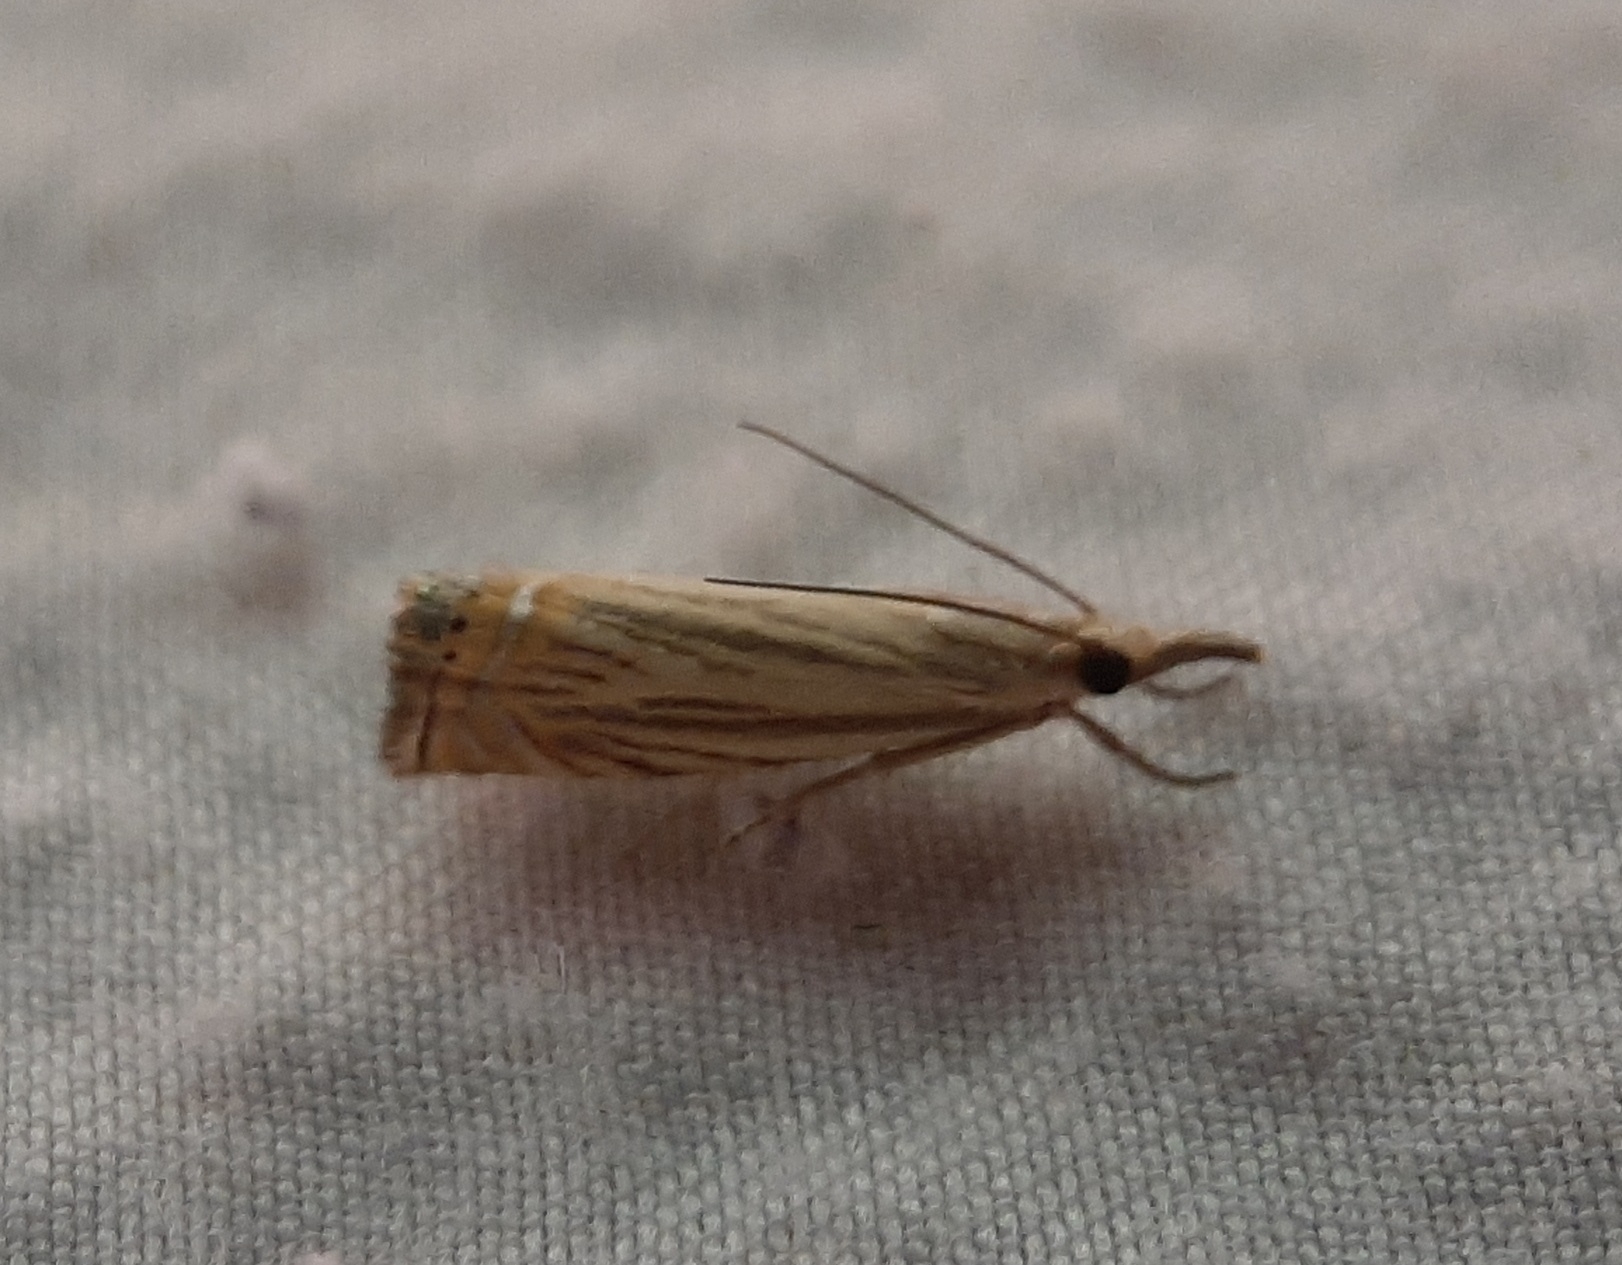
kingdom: Animalia
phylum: Arthropoda
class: Insecta
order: Lepidoptera
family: Crambidae
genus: Chrysoteuchia
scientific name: Chrysoteuchia topiarius
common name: Topiary grass-veneer
